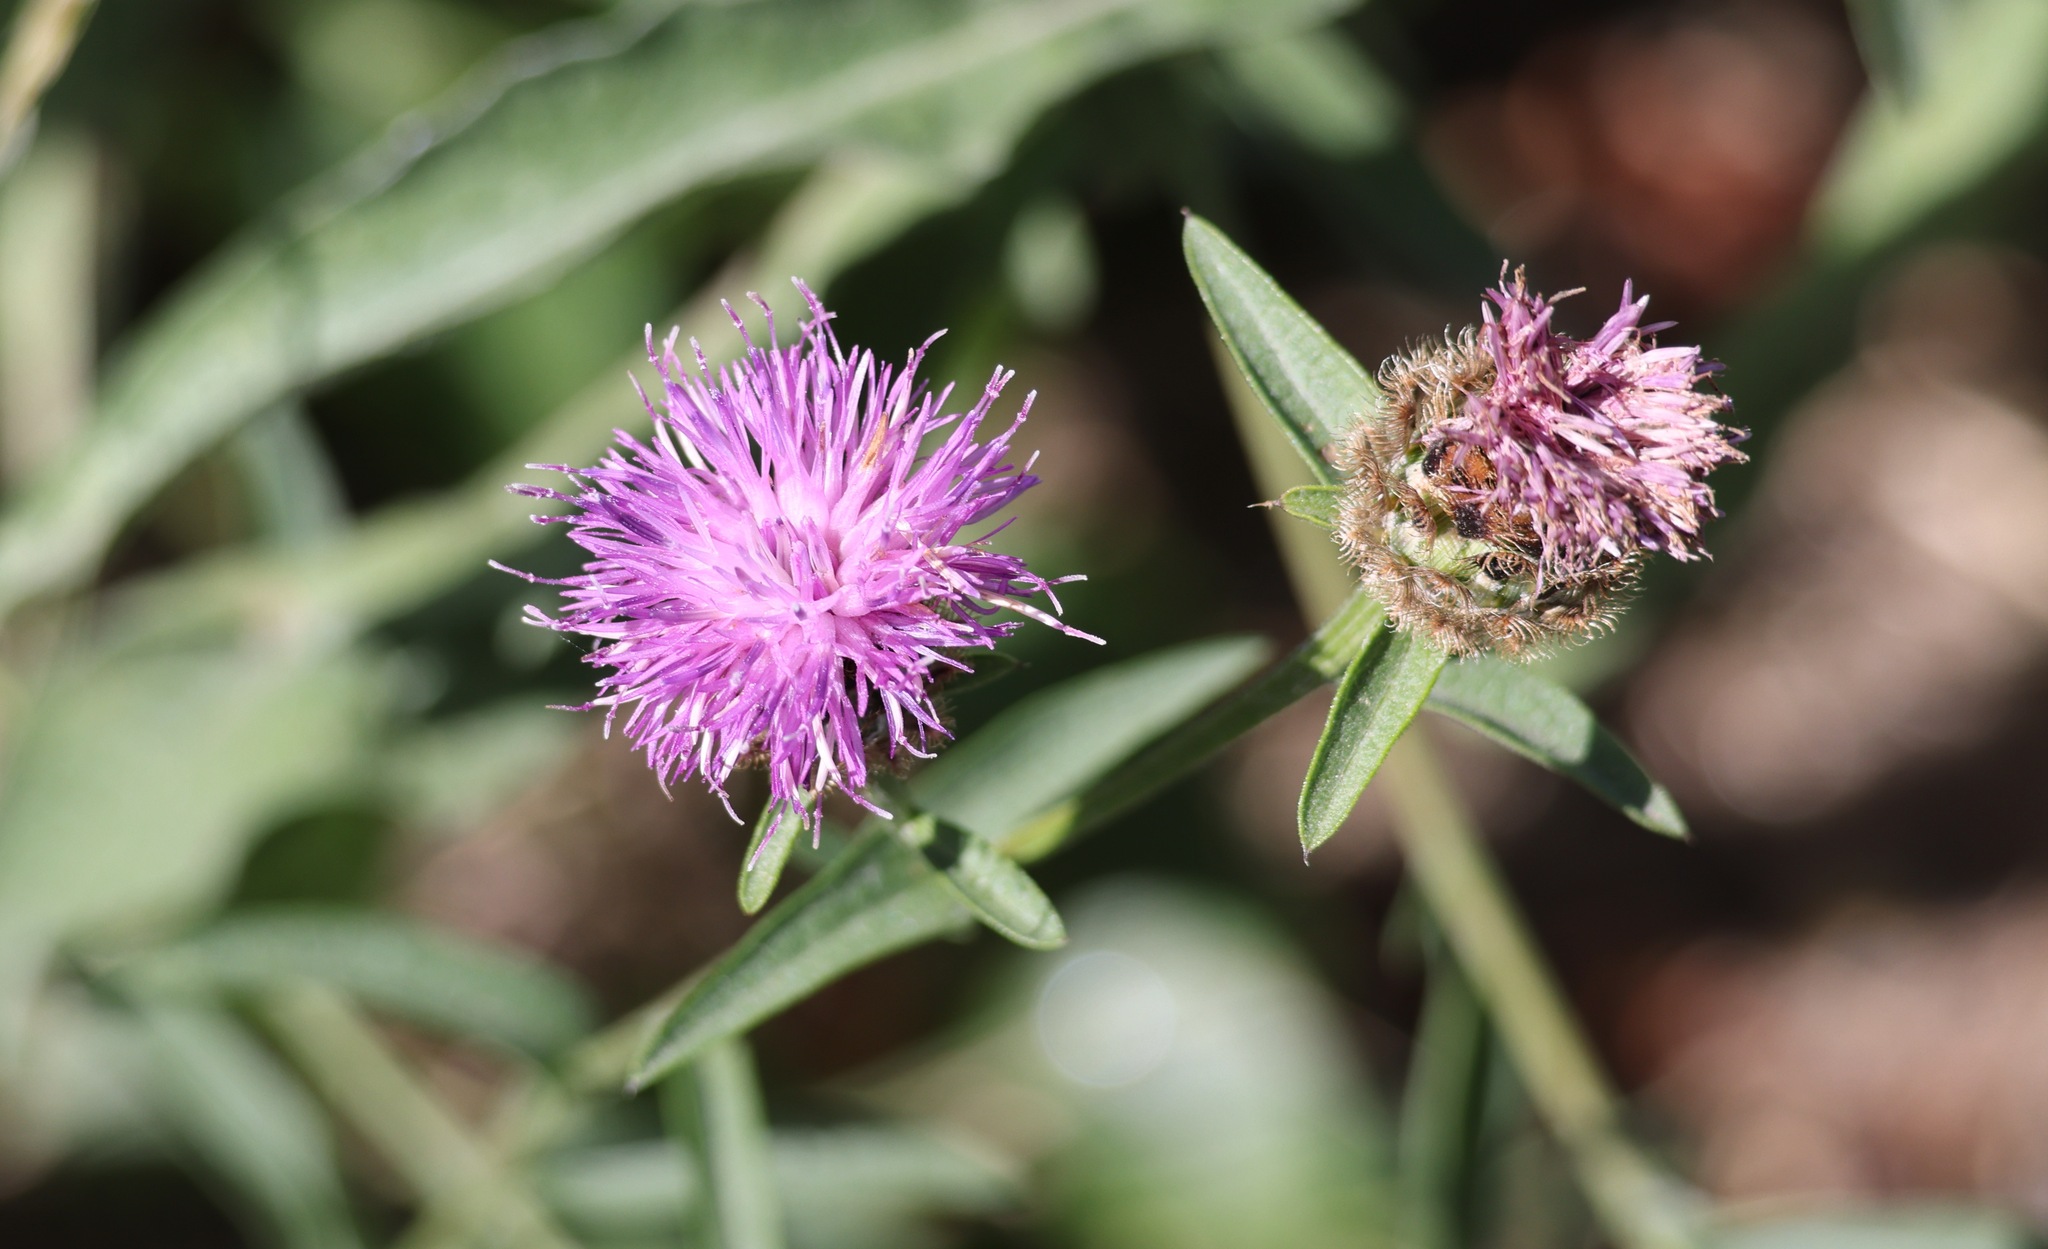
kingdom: Plantae
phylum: Tracheophyta
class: Magnoliopsida
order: Asterales
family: Asteraceae
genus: Centaurea
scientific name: Centaurea nigra
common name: Lesser knapweed
